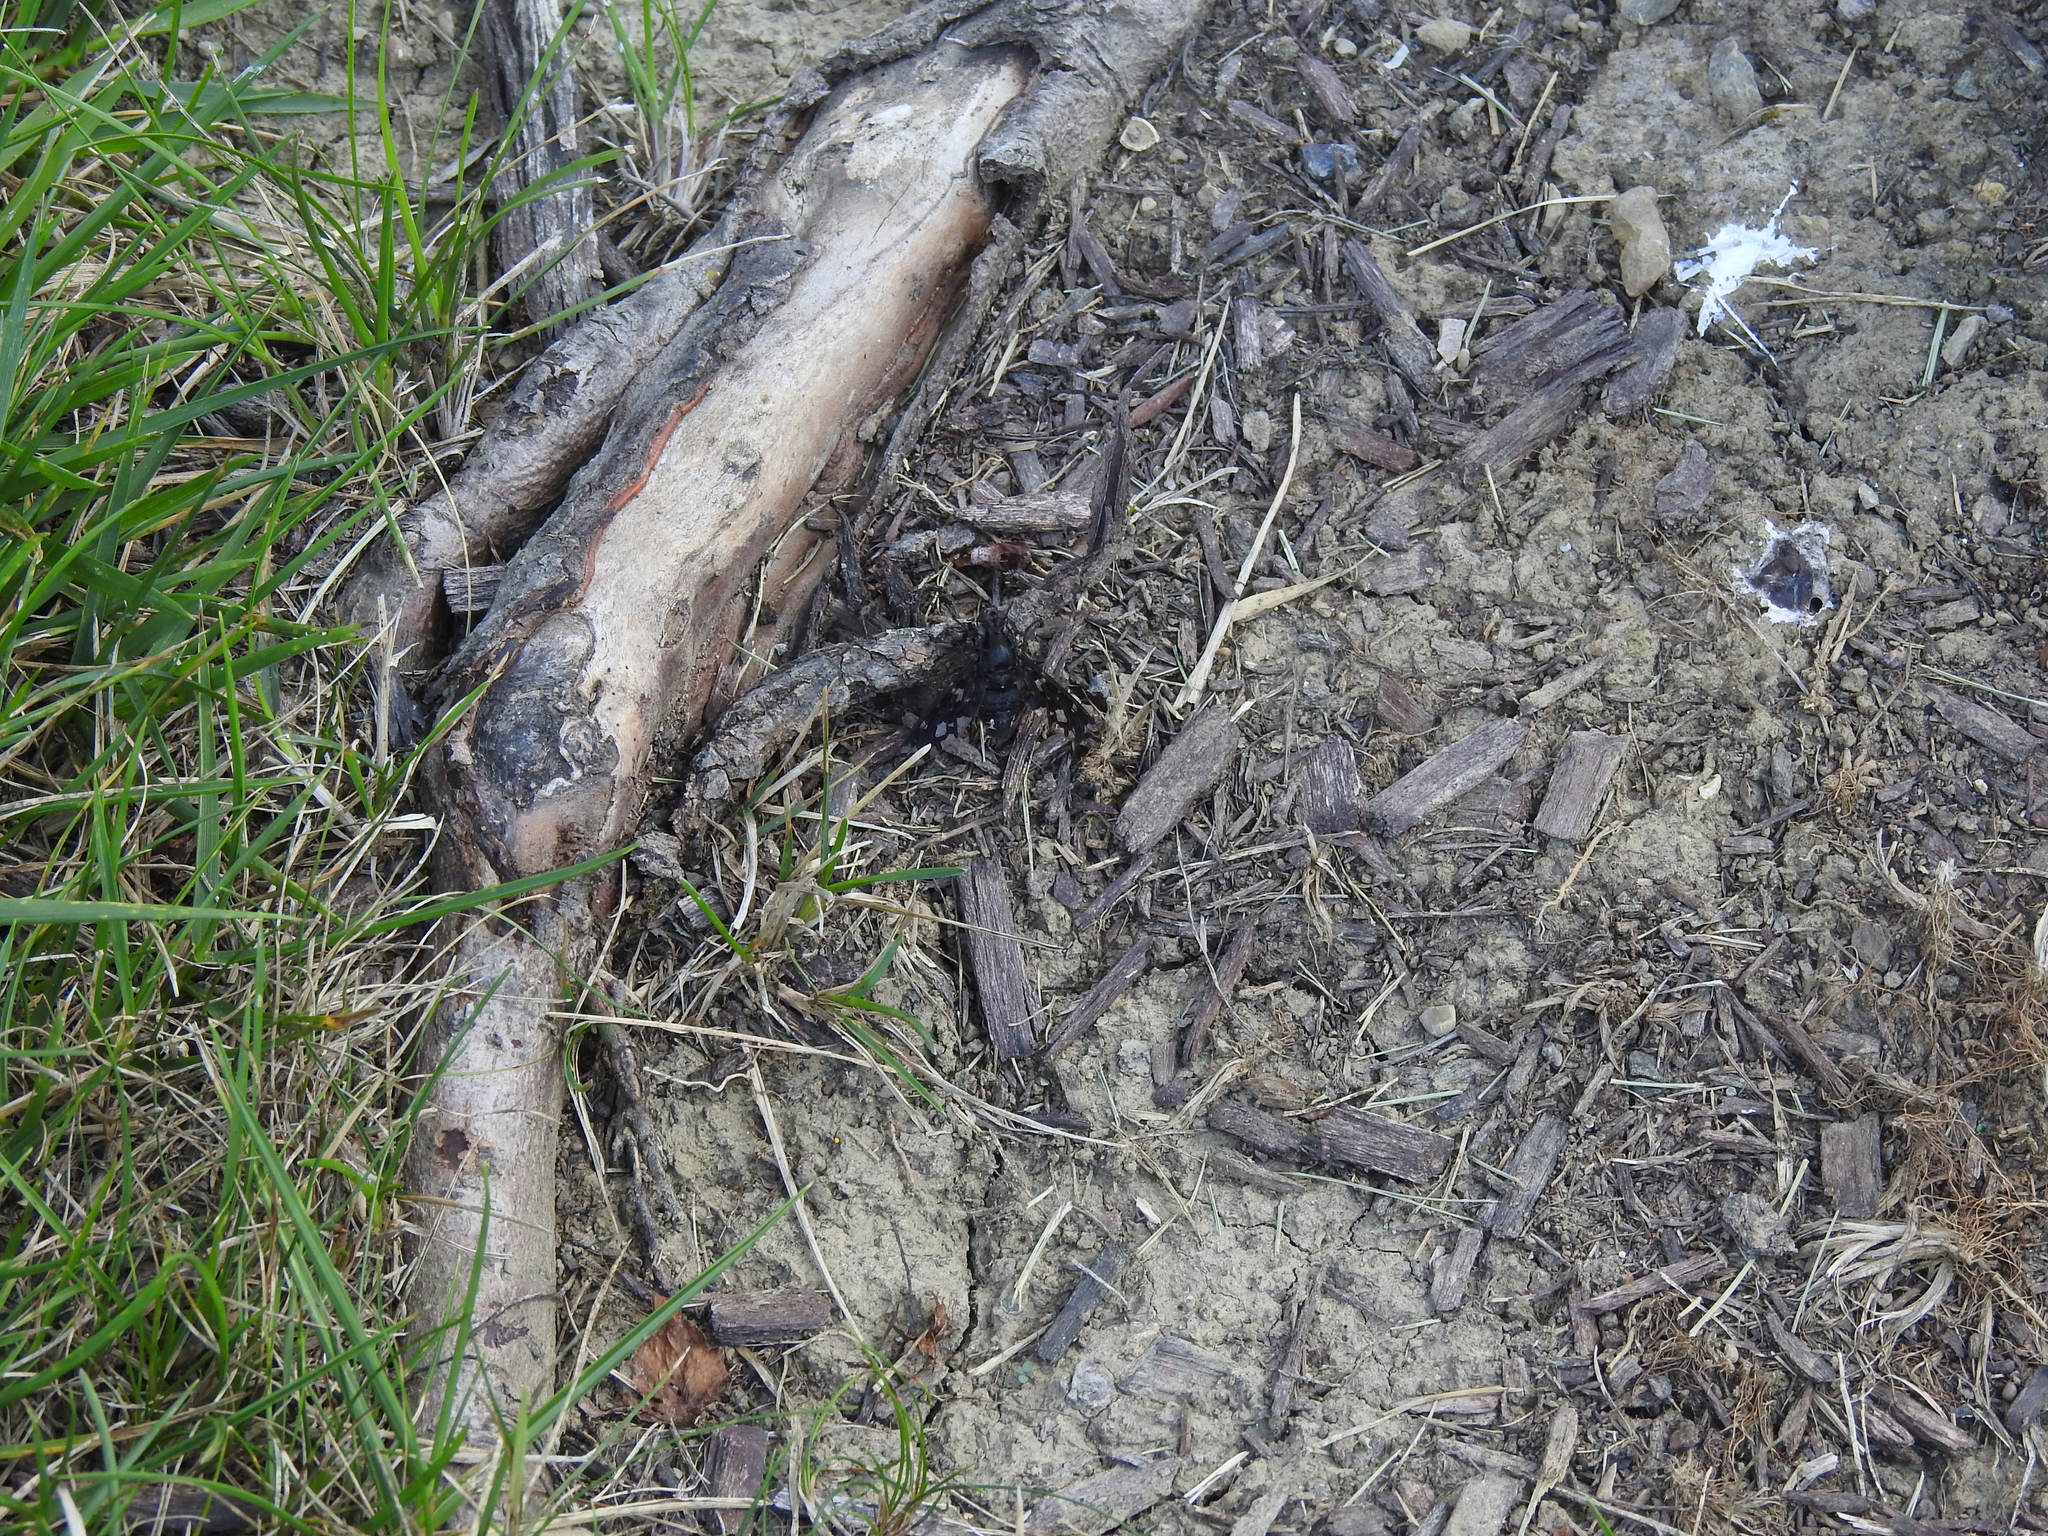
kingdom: Animalia
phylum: Arthropoda
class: Insecta
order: Diptera
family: Bombyliidae
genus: Xenox
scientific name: Xenox tigrinus
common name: Tiger bee fly
